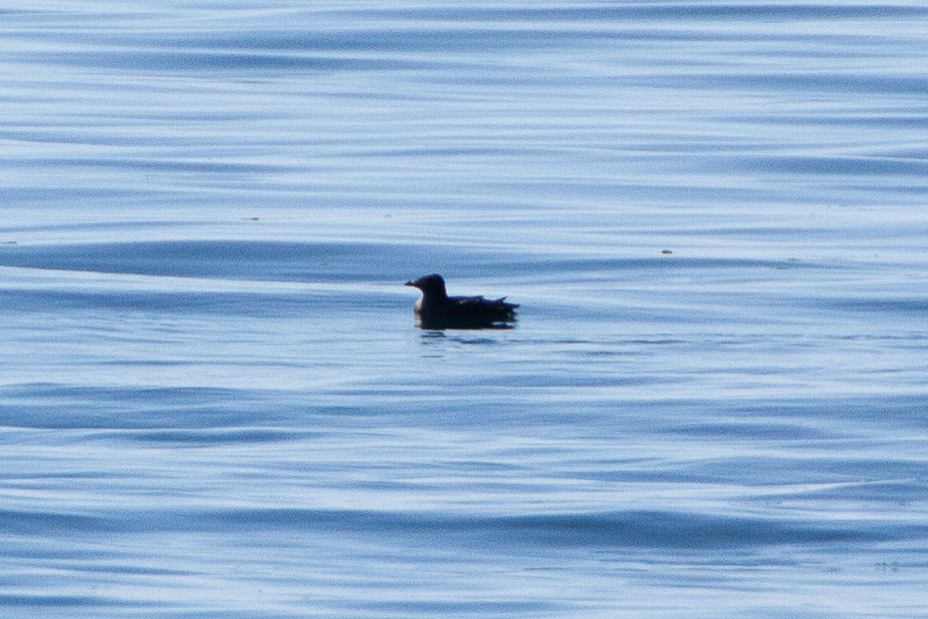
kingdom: Animalia
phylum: Chordata
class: Aves
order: Charadriiformes
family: Alcidae
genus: Cerorhinca
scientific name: Cerorhinca monocerata
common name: Rhinoceros auklet
